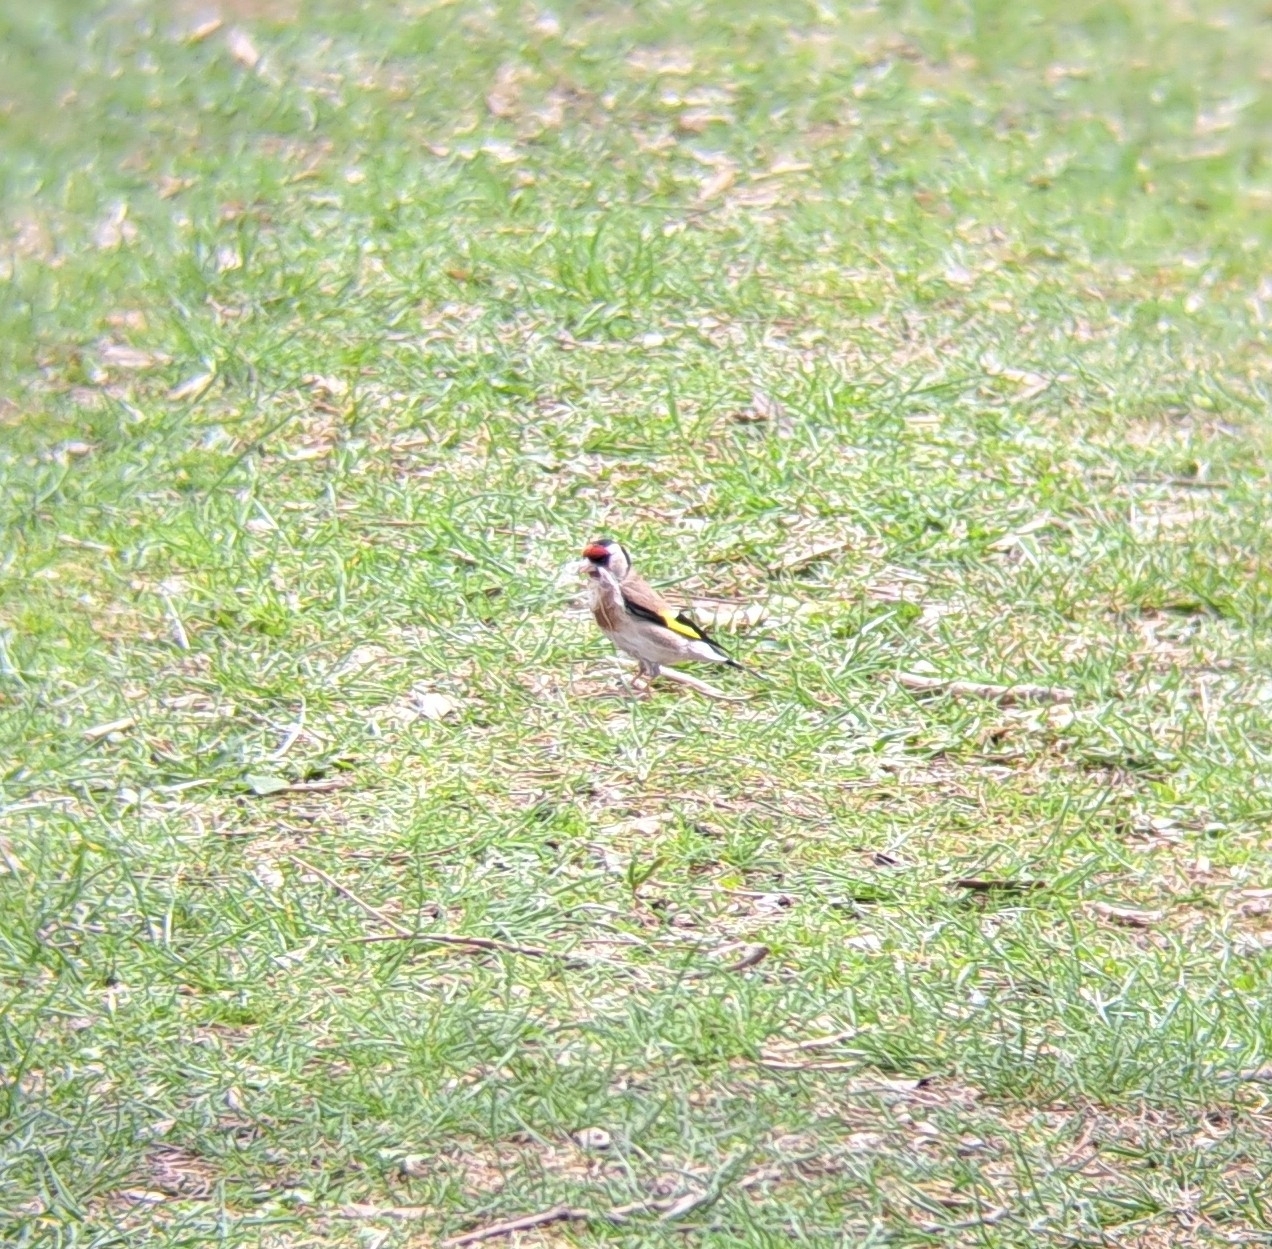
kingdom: Animalia
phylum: Chordata
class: Aves
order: Passeriformes
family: Fringillidae
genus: Carduelis
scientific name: Carduelis carduelis
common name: European goldfinch
